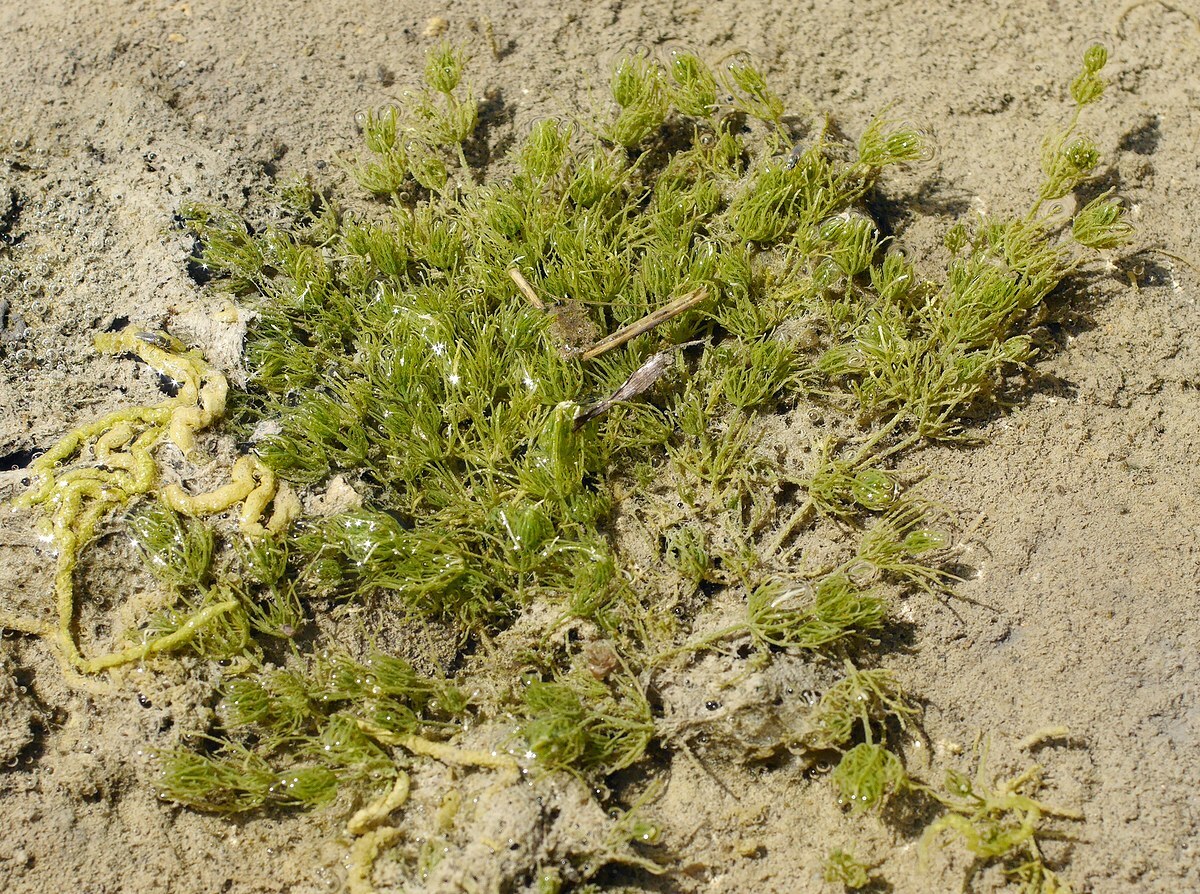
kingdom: Plantae
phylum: Charophyta
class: Charophyceae
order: Charales
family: Characeae
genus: Chara
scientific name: Chara vulgaris
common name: Common stonewort
